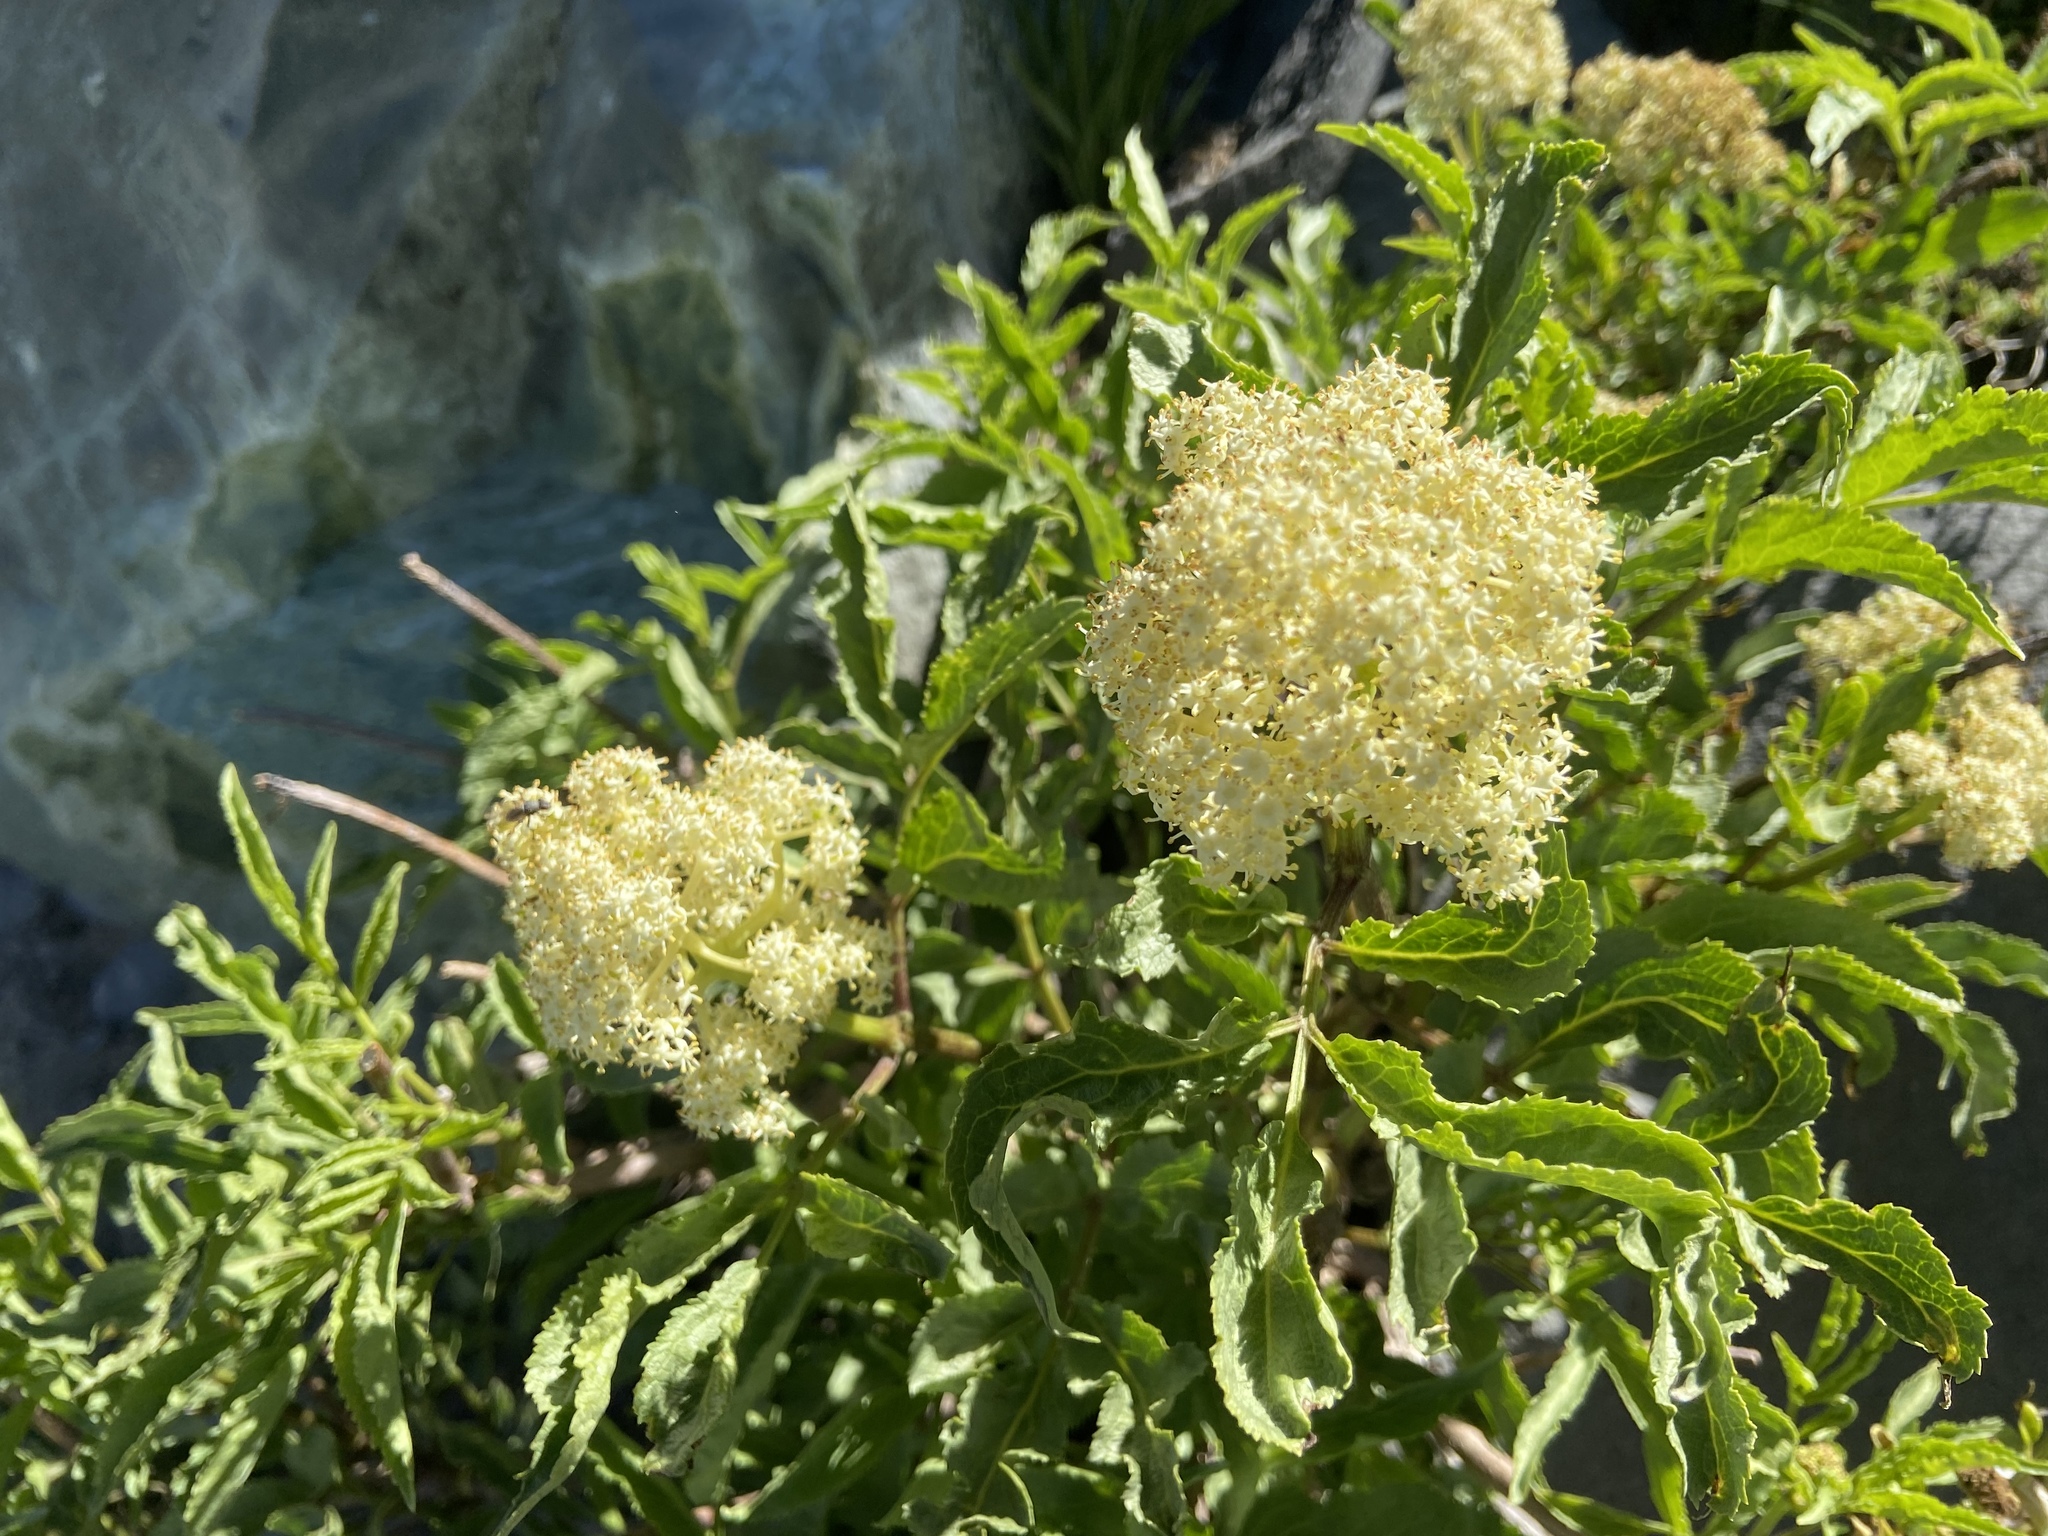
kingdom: Plantae
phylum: Tracheophyta
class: Magnoliopsida
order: Dipsacales
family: Viburnaceae
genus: Sambucus
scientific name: Sambucus racemosa
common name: Red-berried elder
